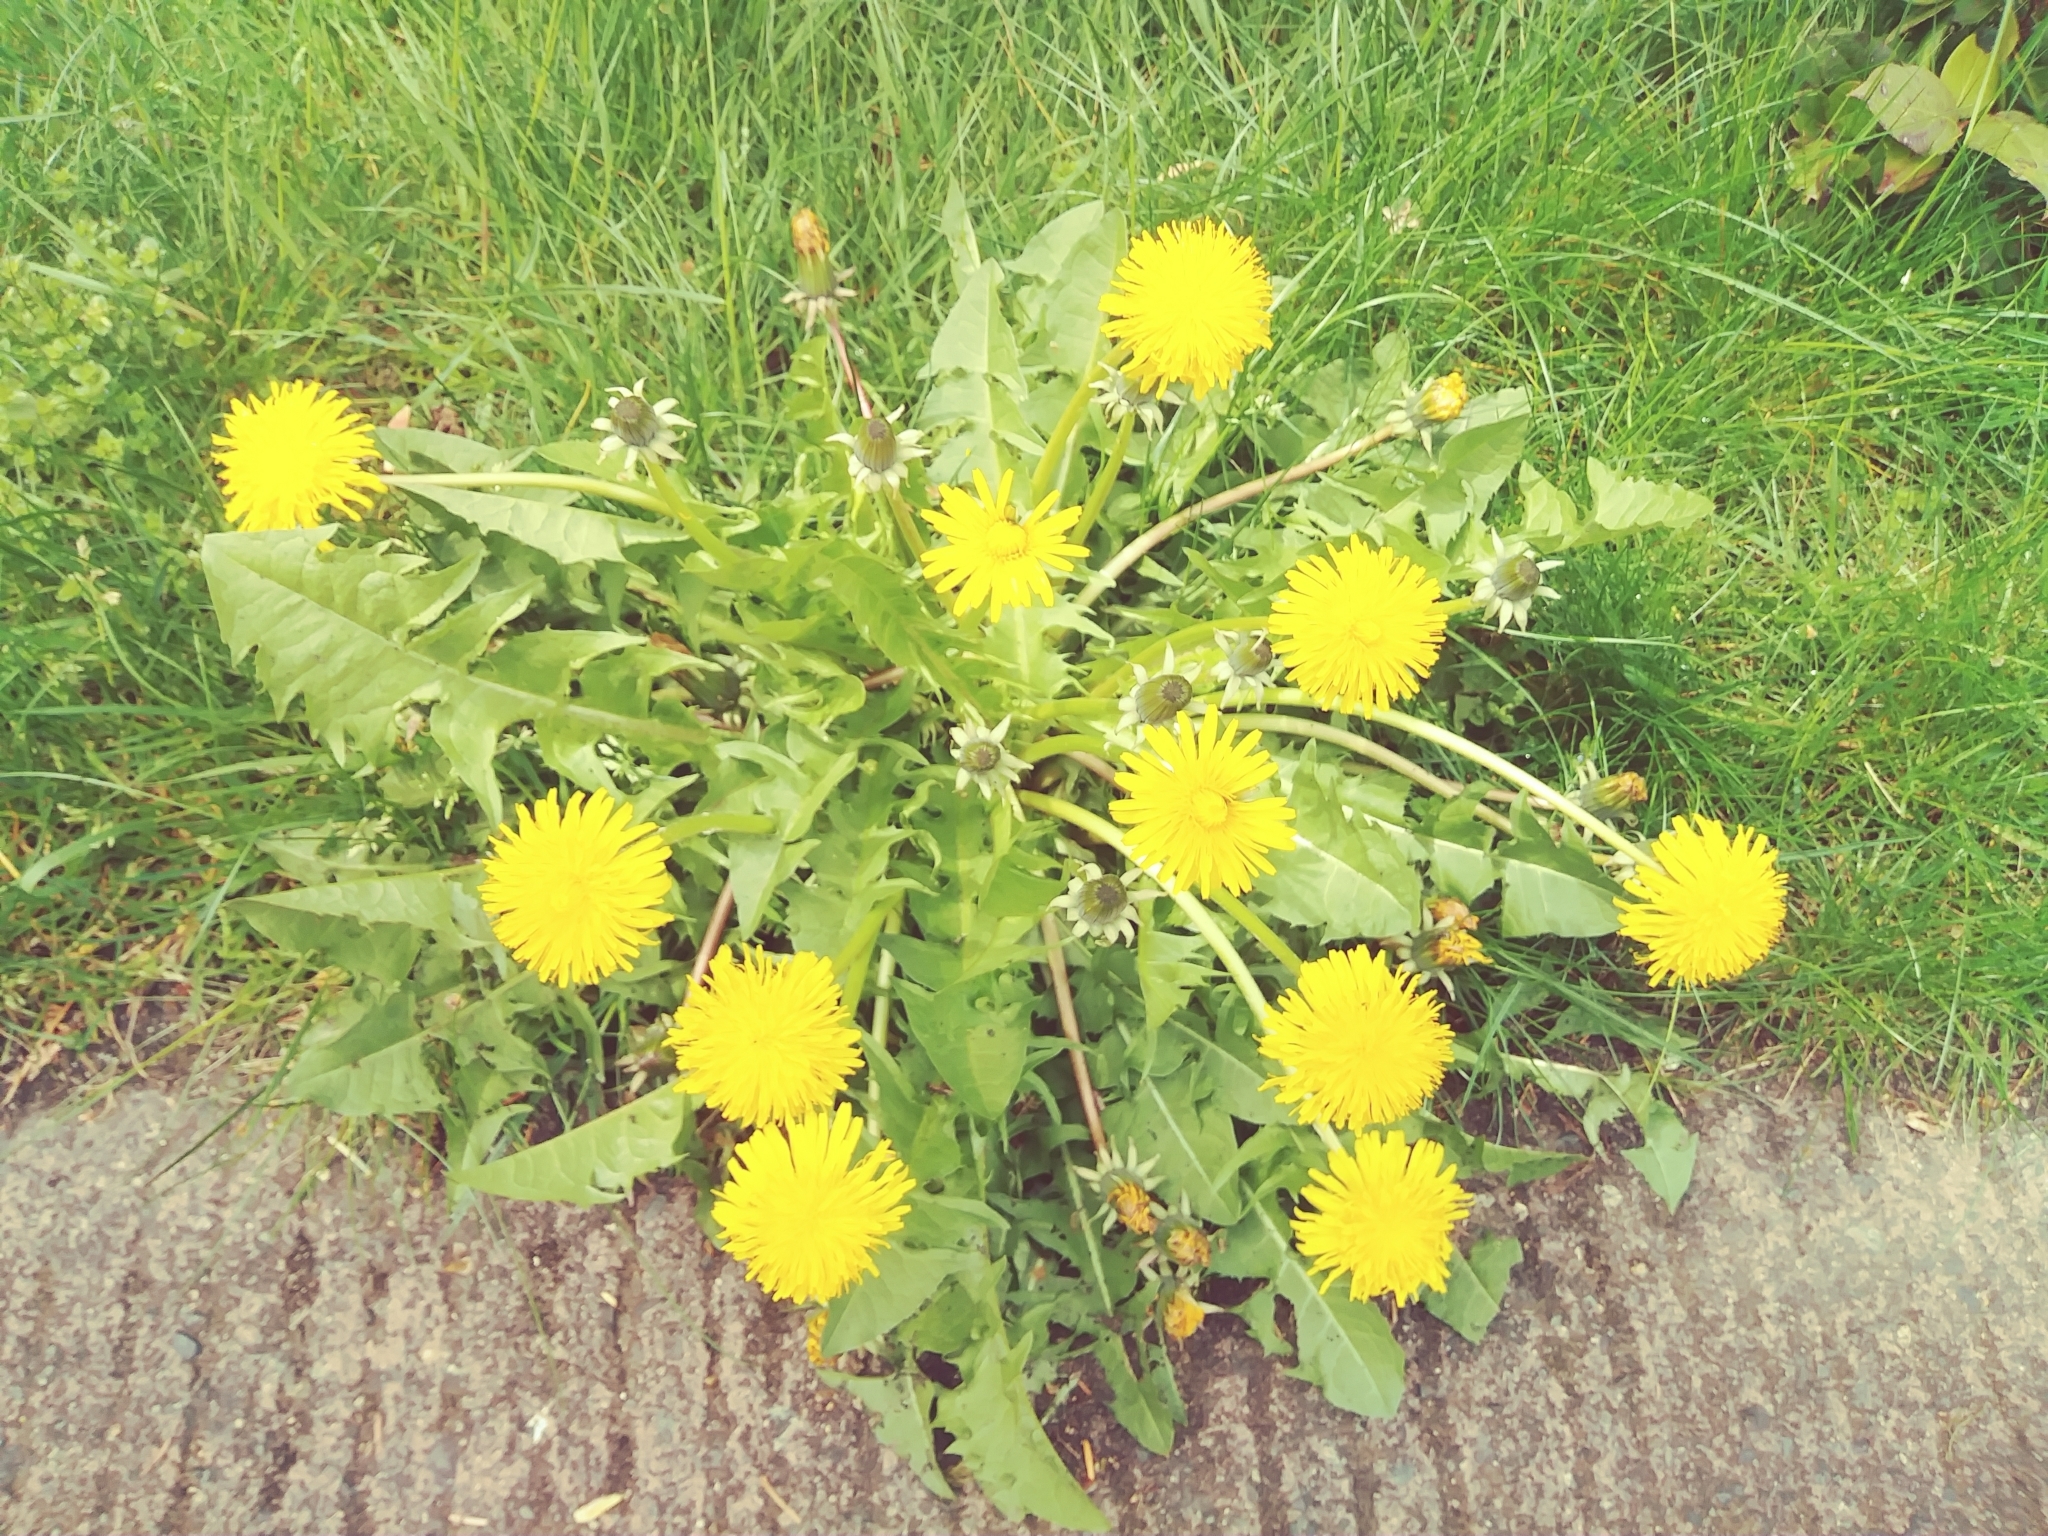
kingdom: Plantae
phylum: Tracheophyta
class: Magnoliopsida
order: Asterales
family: Asteraceae
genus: Taraxacum
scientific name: Taraxacum officinale
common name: Common dandelion
